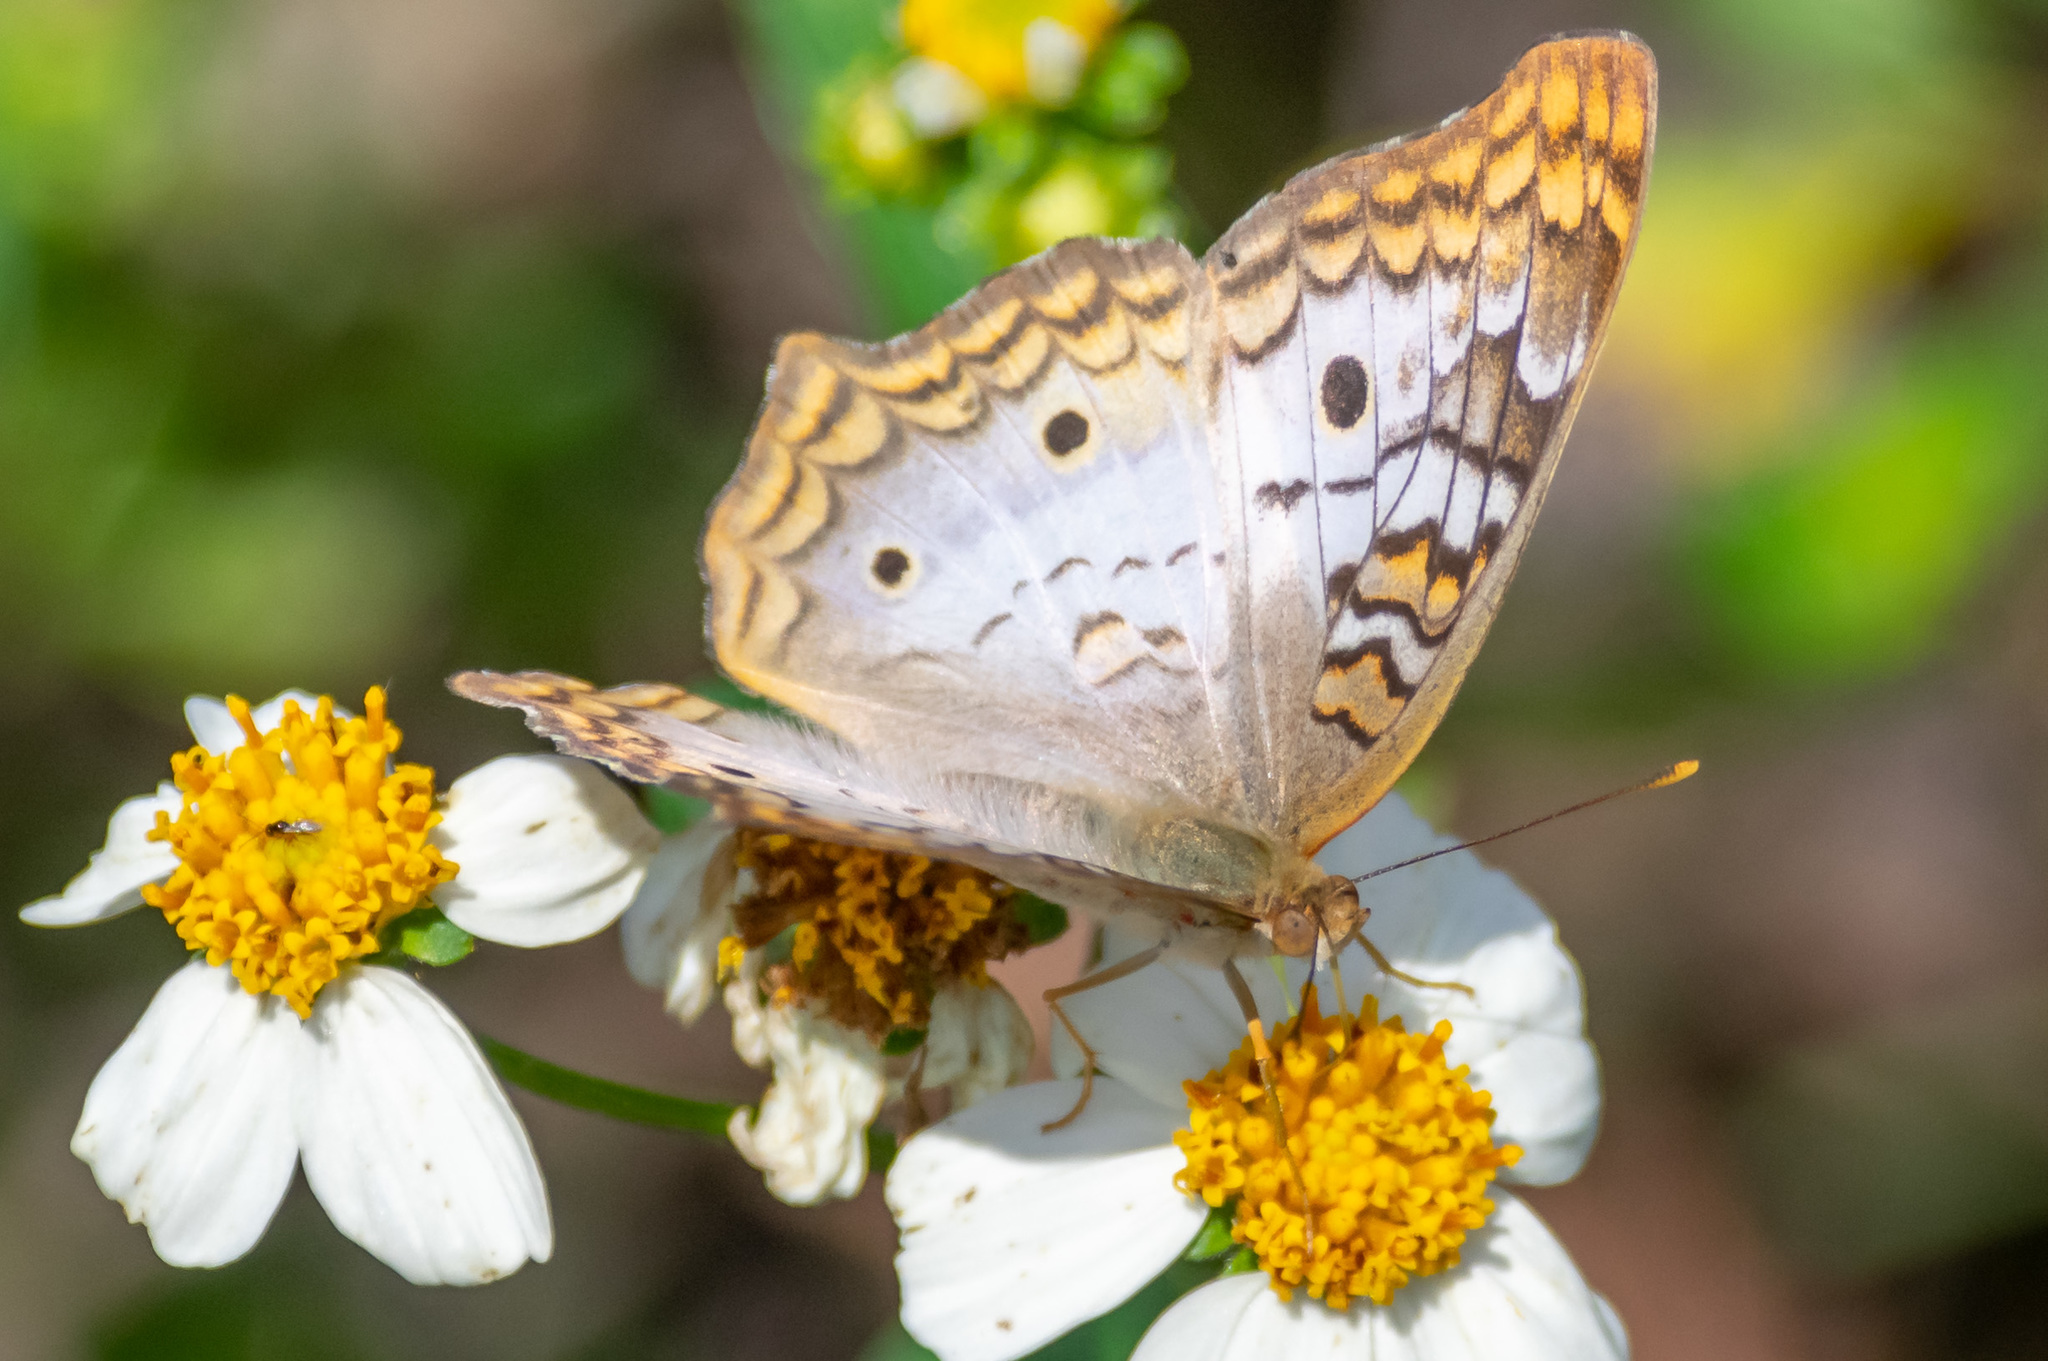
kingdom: Animalia
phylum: Arthropoda
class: Insecta
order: Lepidoptera
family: Nymphalidae
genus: Anartia
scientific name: Anartia jatrophae
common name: White peacock
